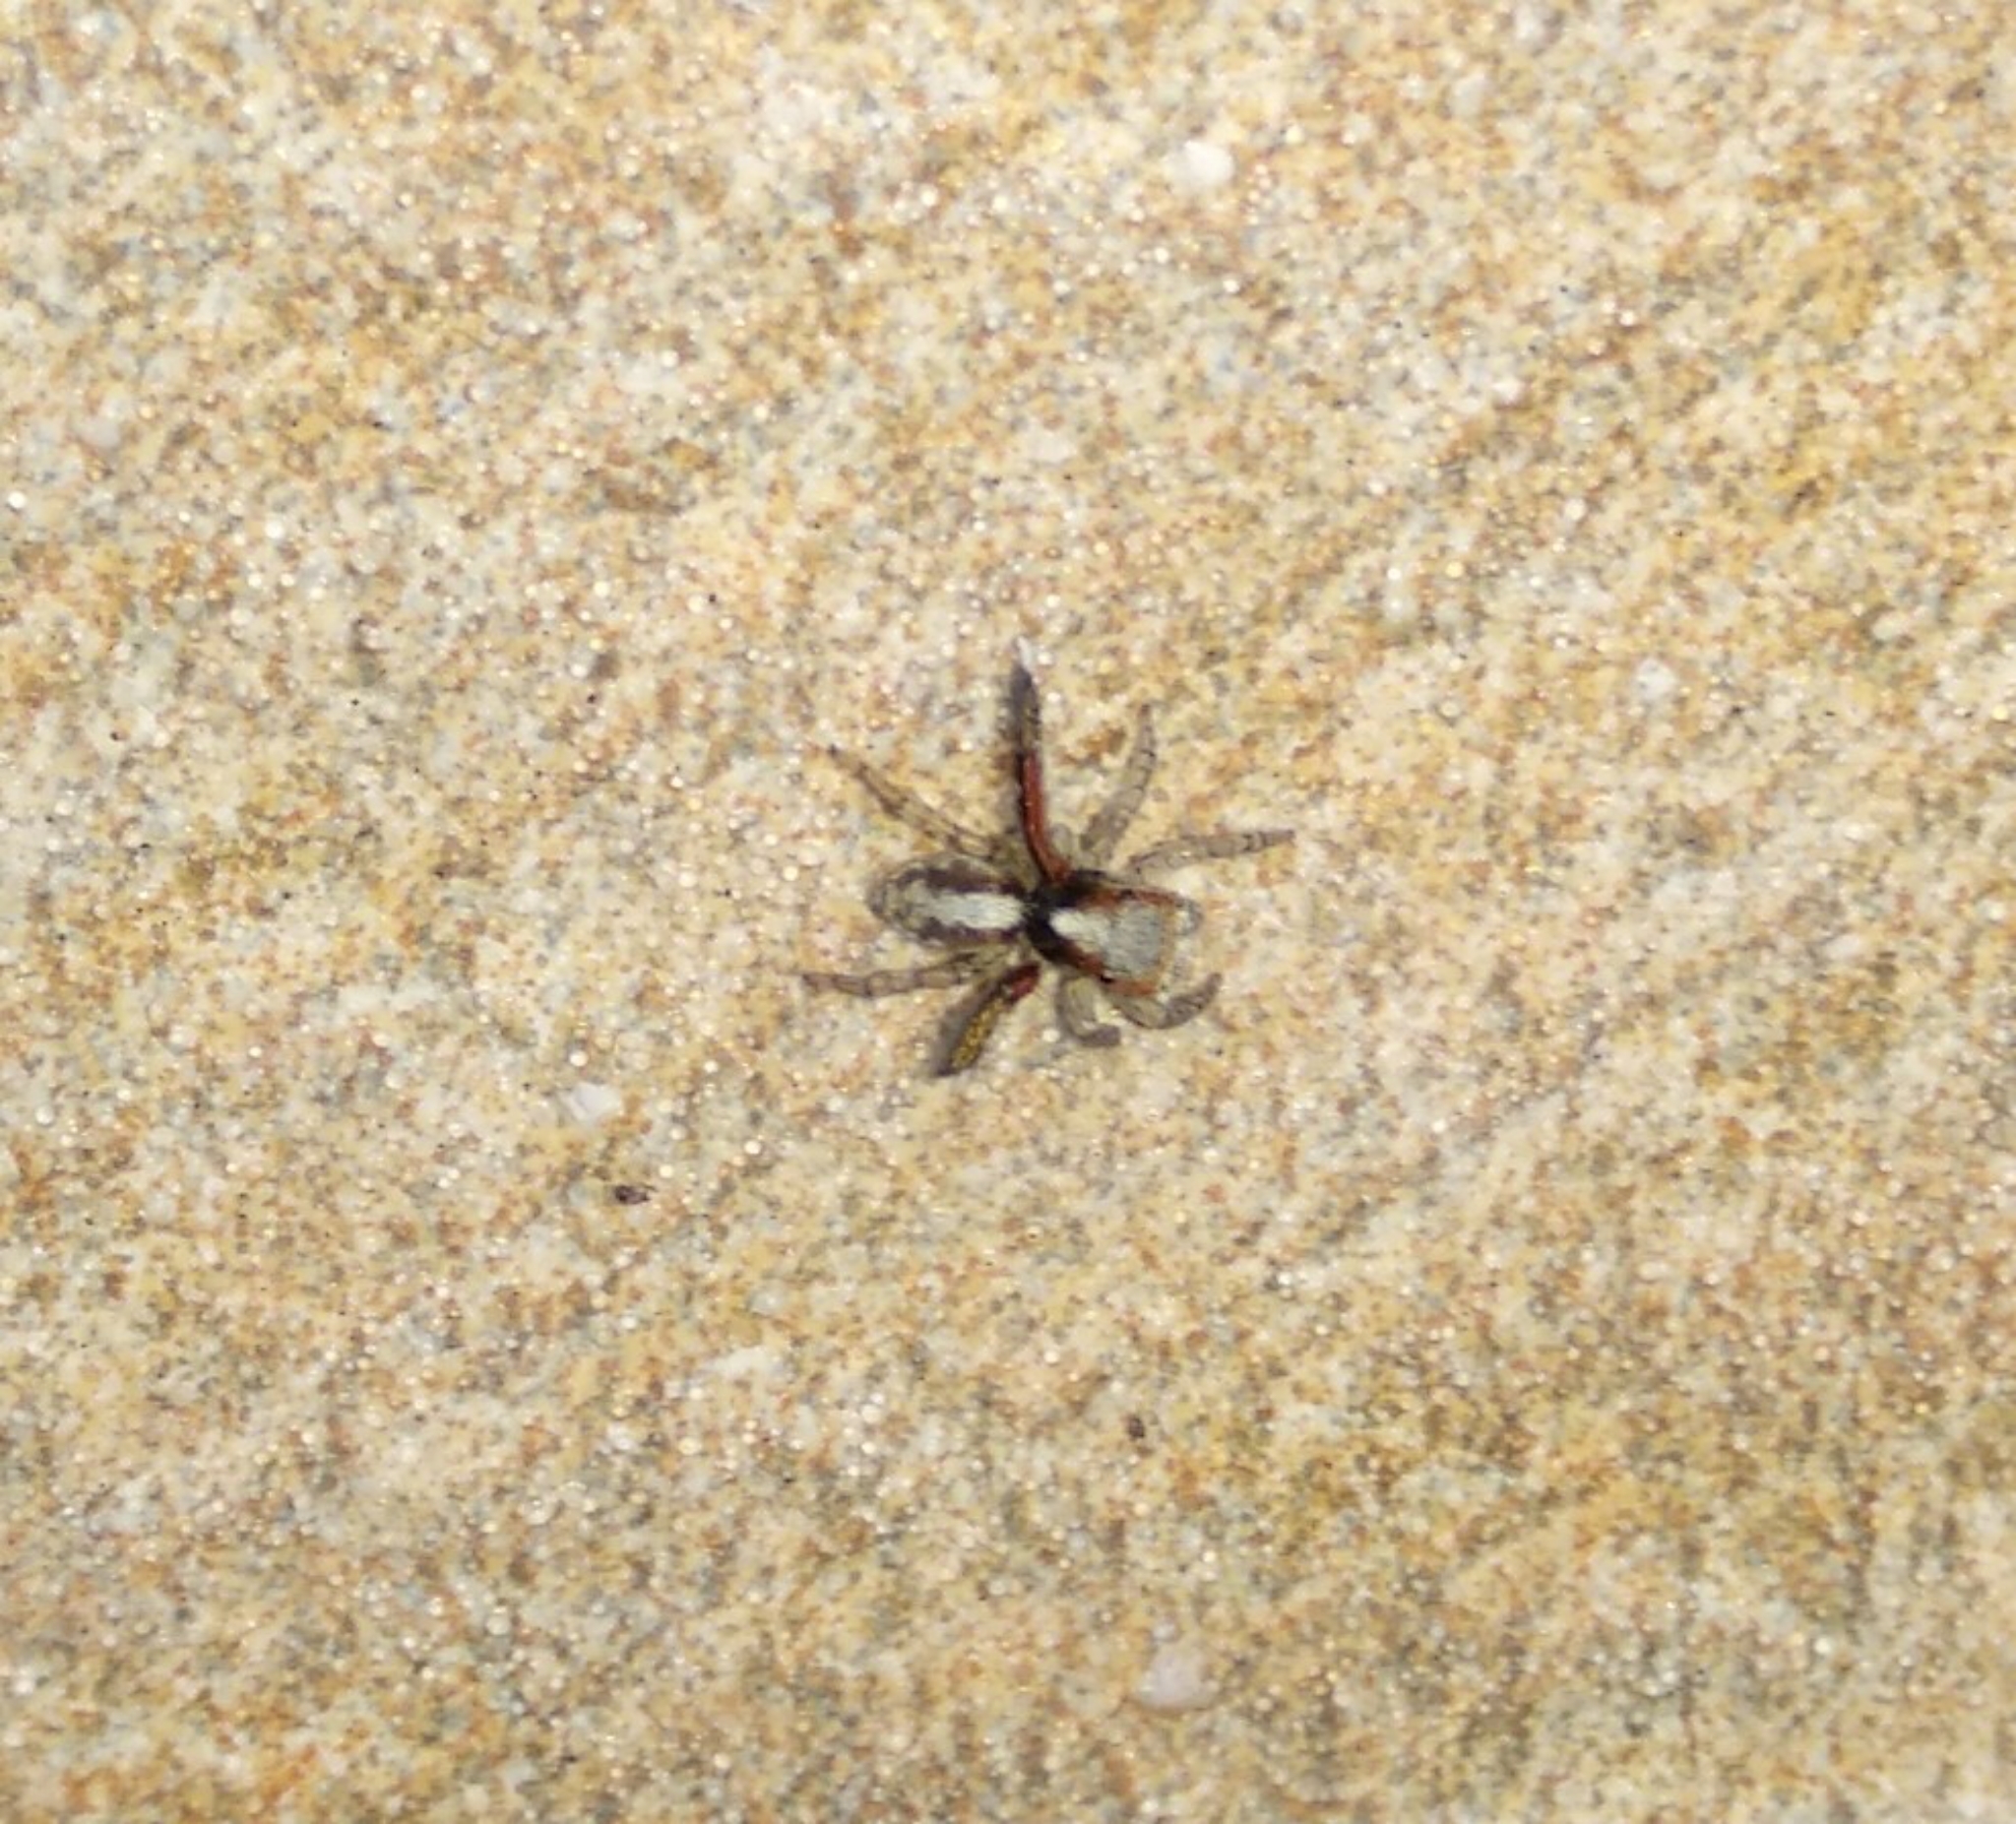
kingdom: Animalia
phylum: Arthropoda
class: Arachnida
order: Araneae
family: Salticidae
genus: Saitis
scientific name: Saitis barbipes
